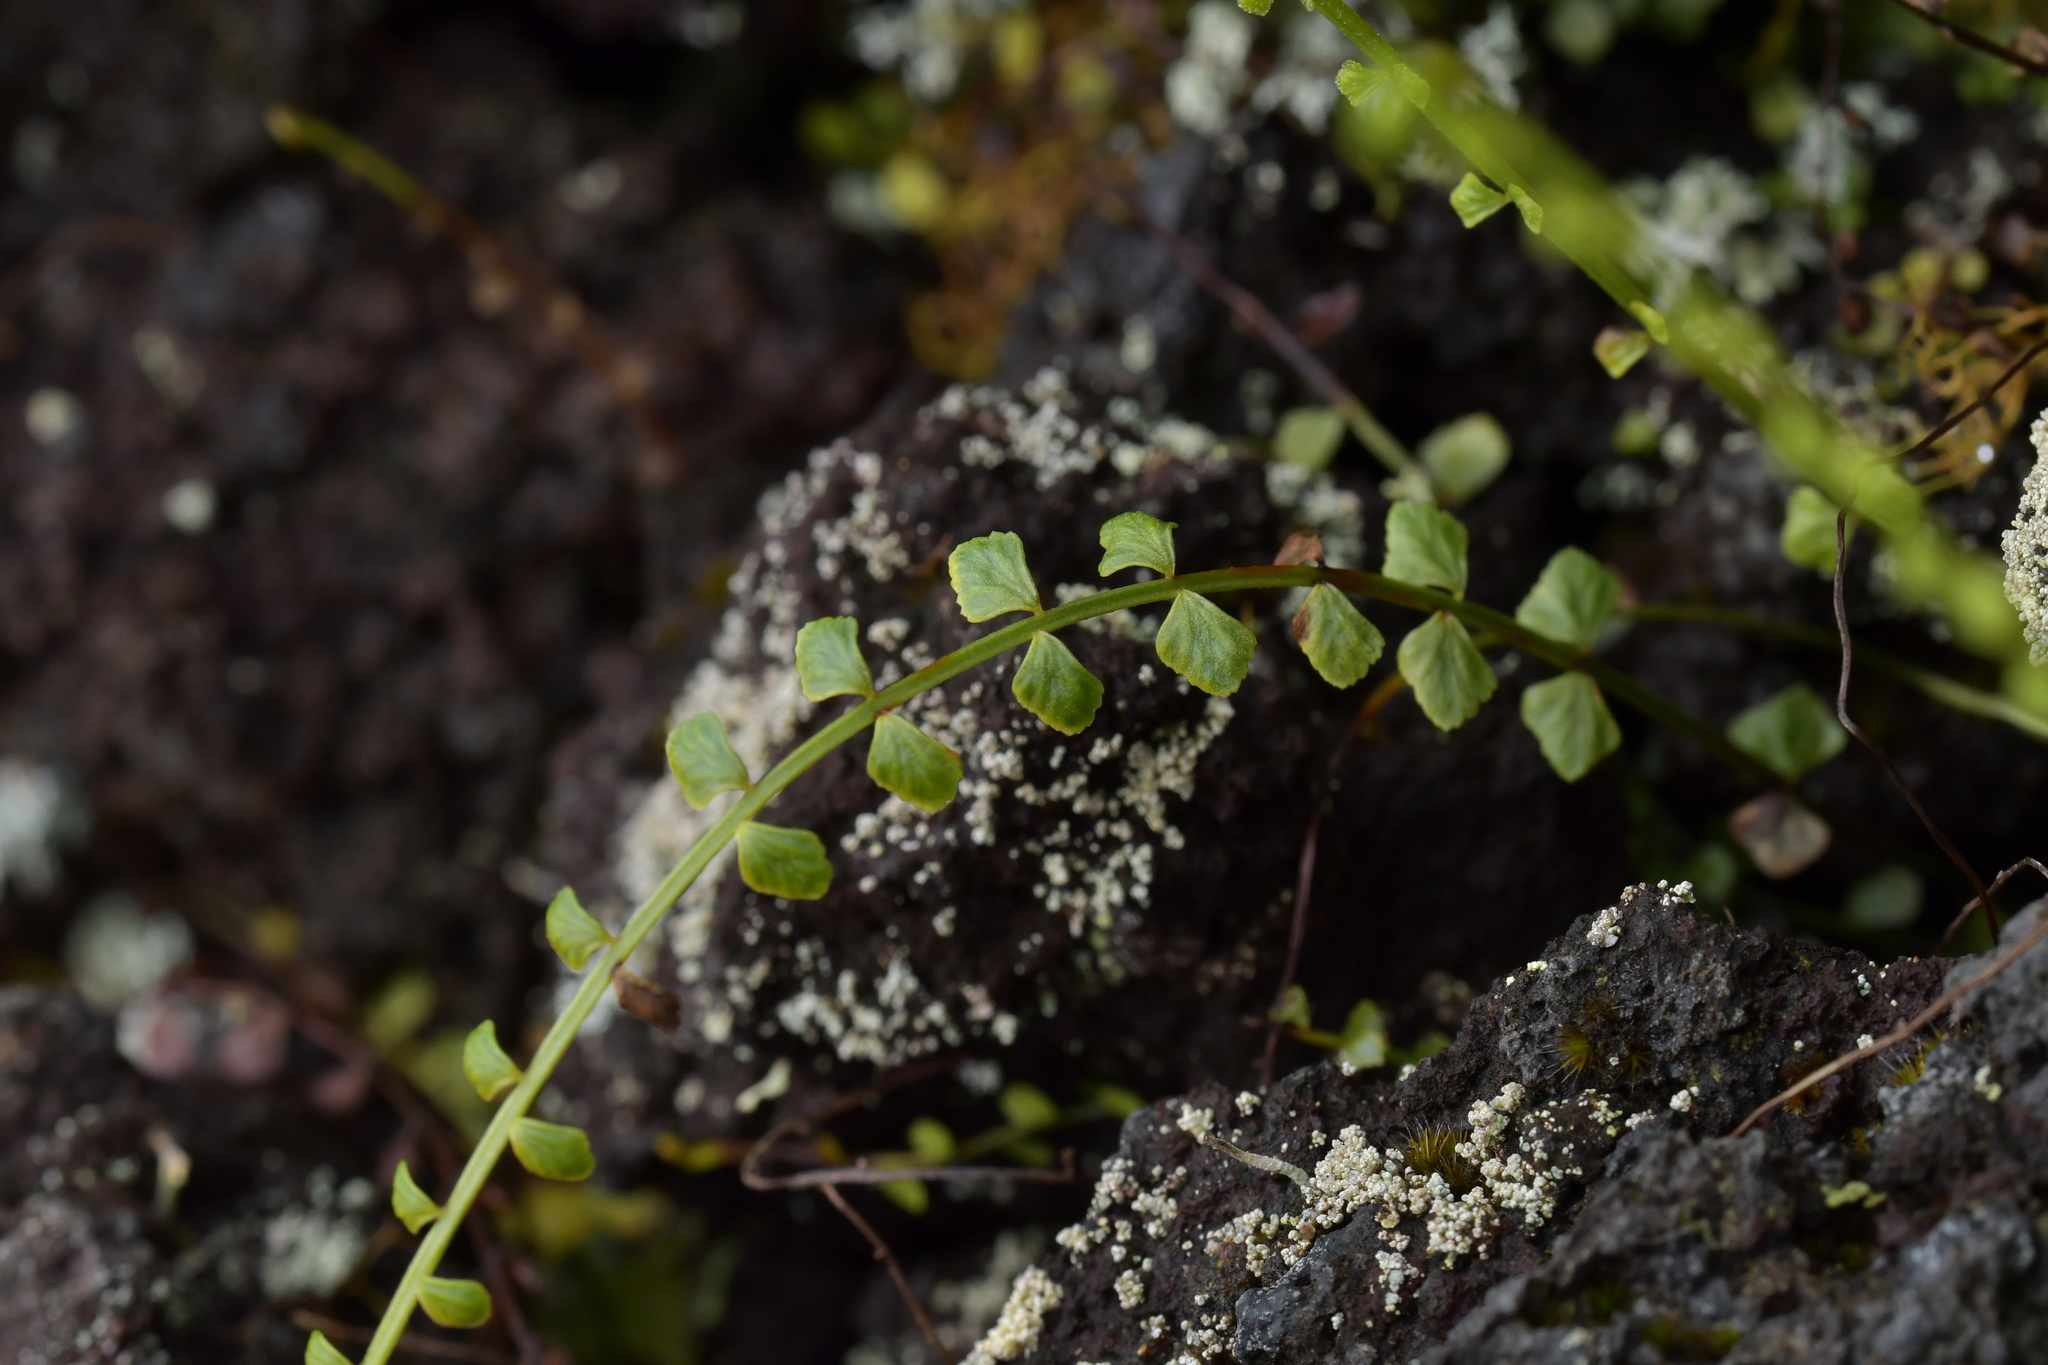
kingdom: Plantae
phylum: Tracheophyta
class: Polypodiopsida
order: Polypodiales
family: Aspleniaceae
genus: Asplenium
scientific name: Asplenium flabellifolium
